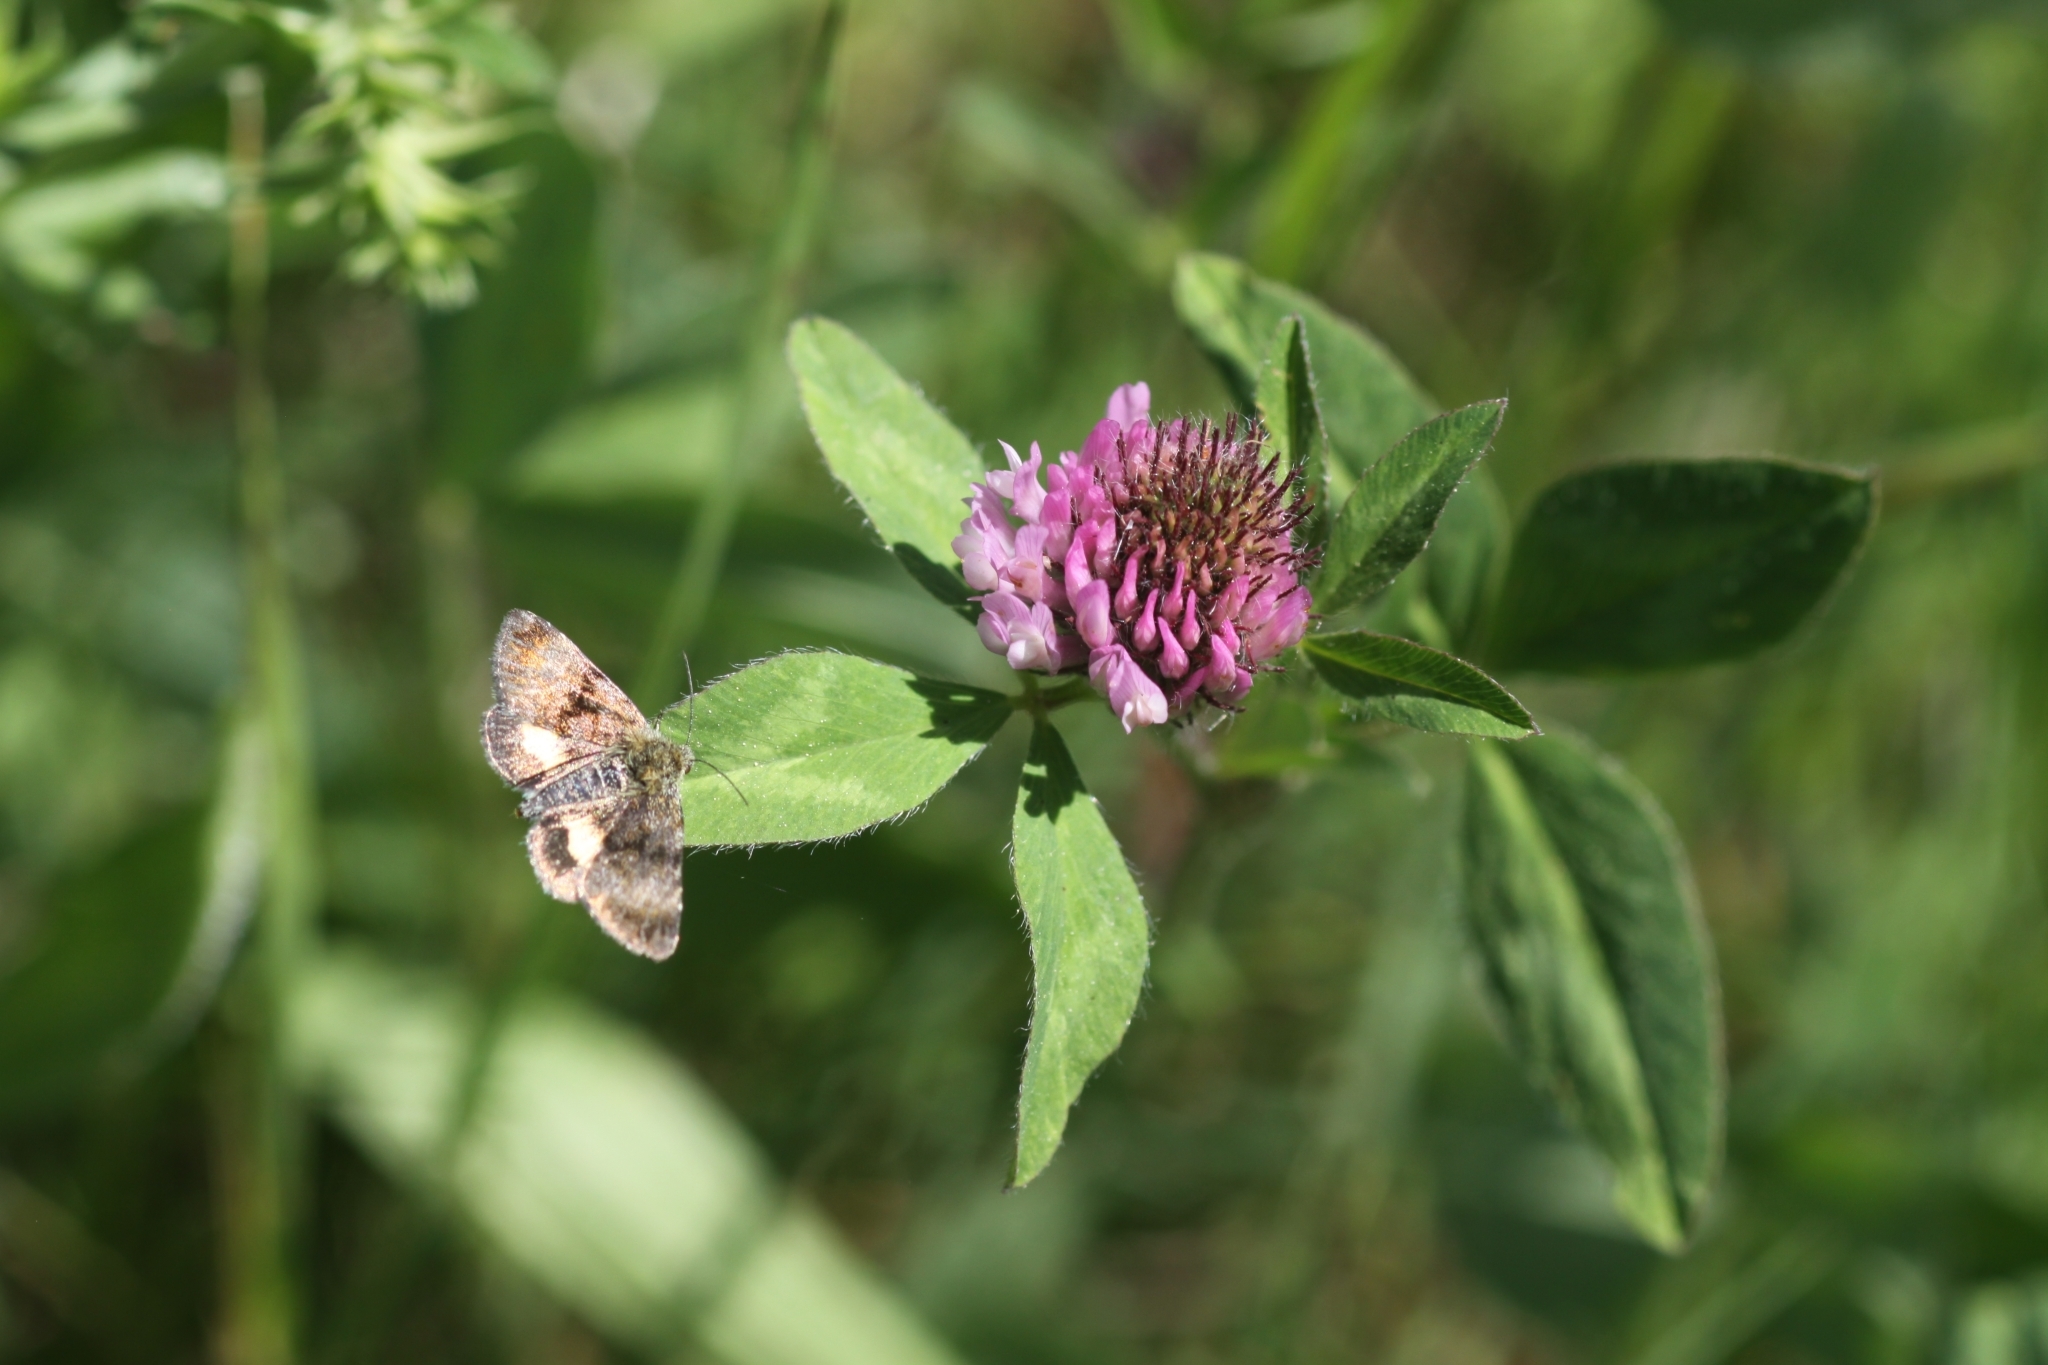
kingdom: Animalia
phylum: Arthropoda
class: Insecta
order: Lepidoptera
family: Noctuidae
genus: Panemeria
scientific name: Panemeria tenebrata
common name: Small yellow underwing
